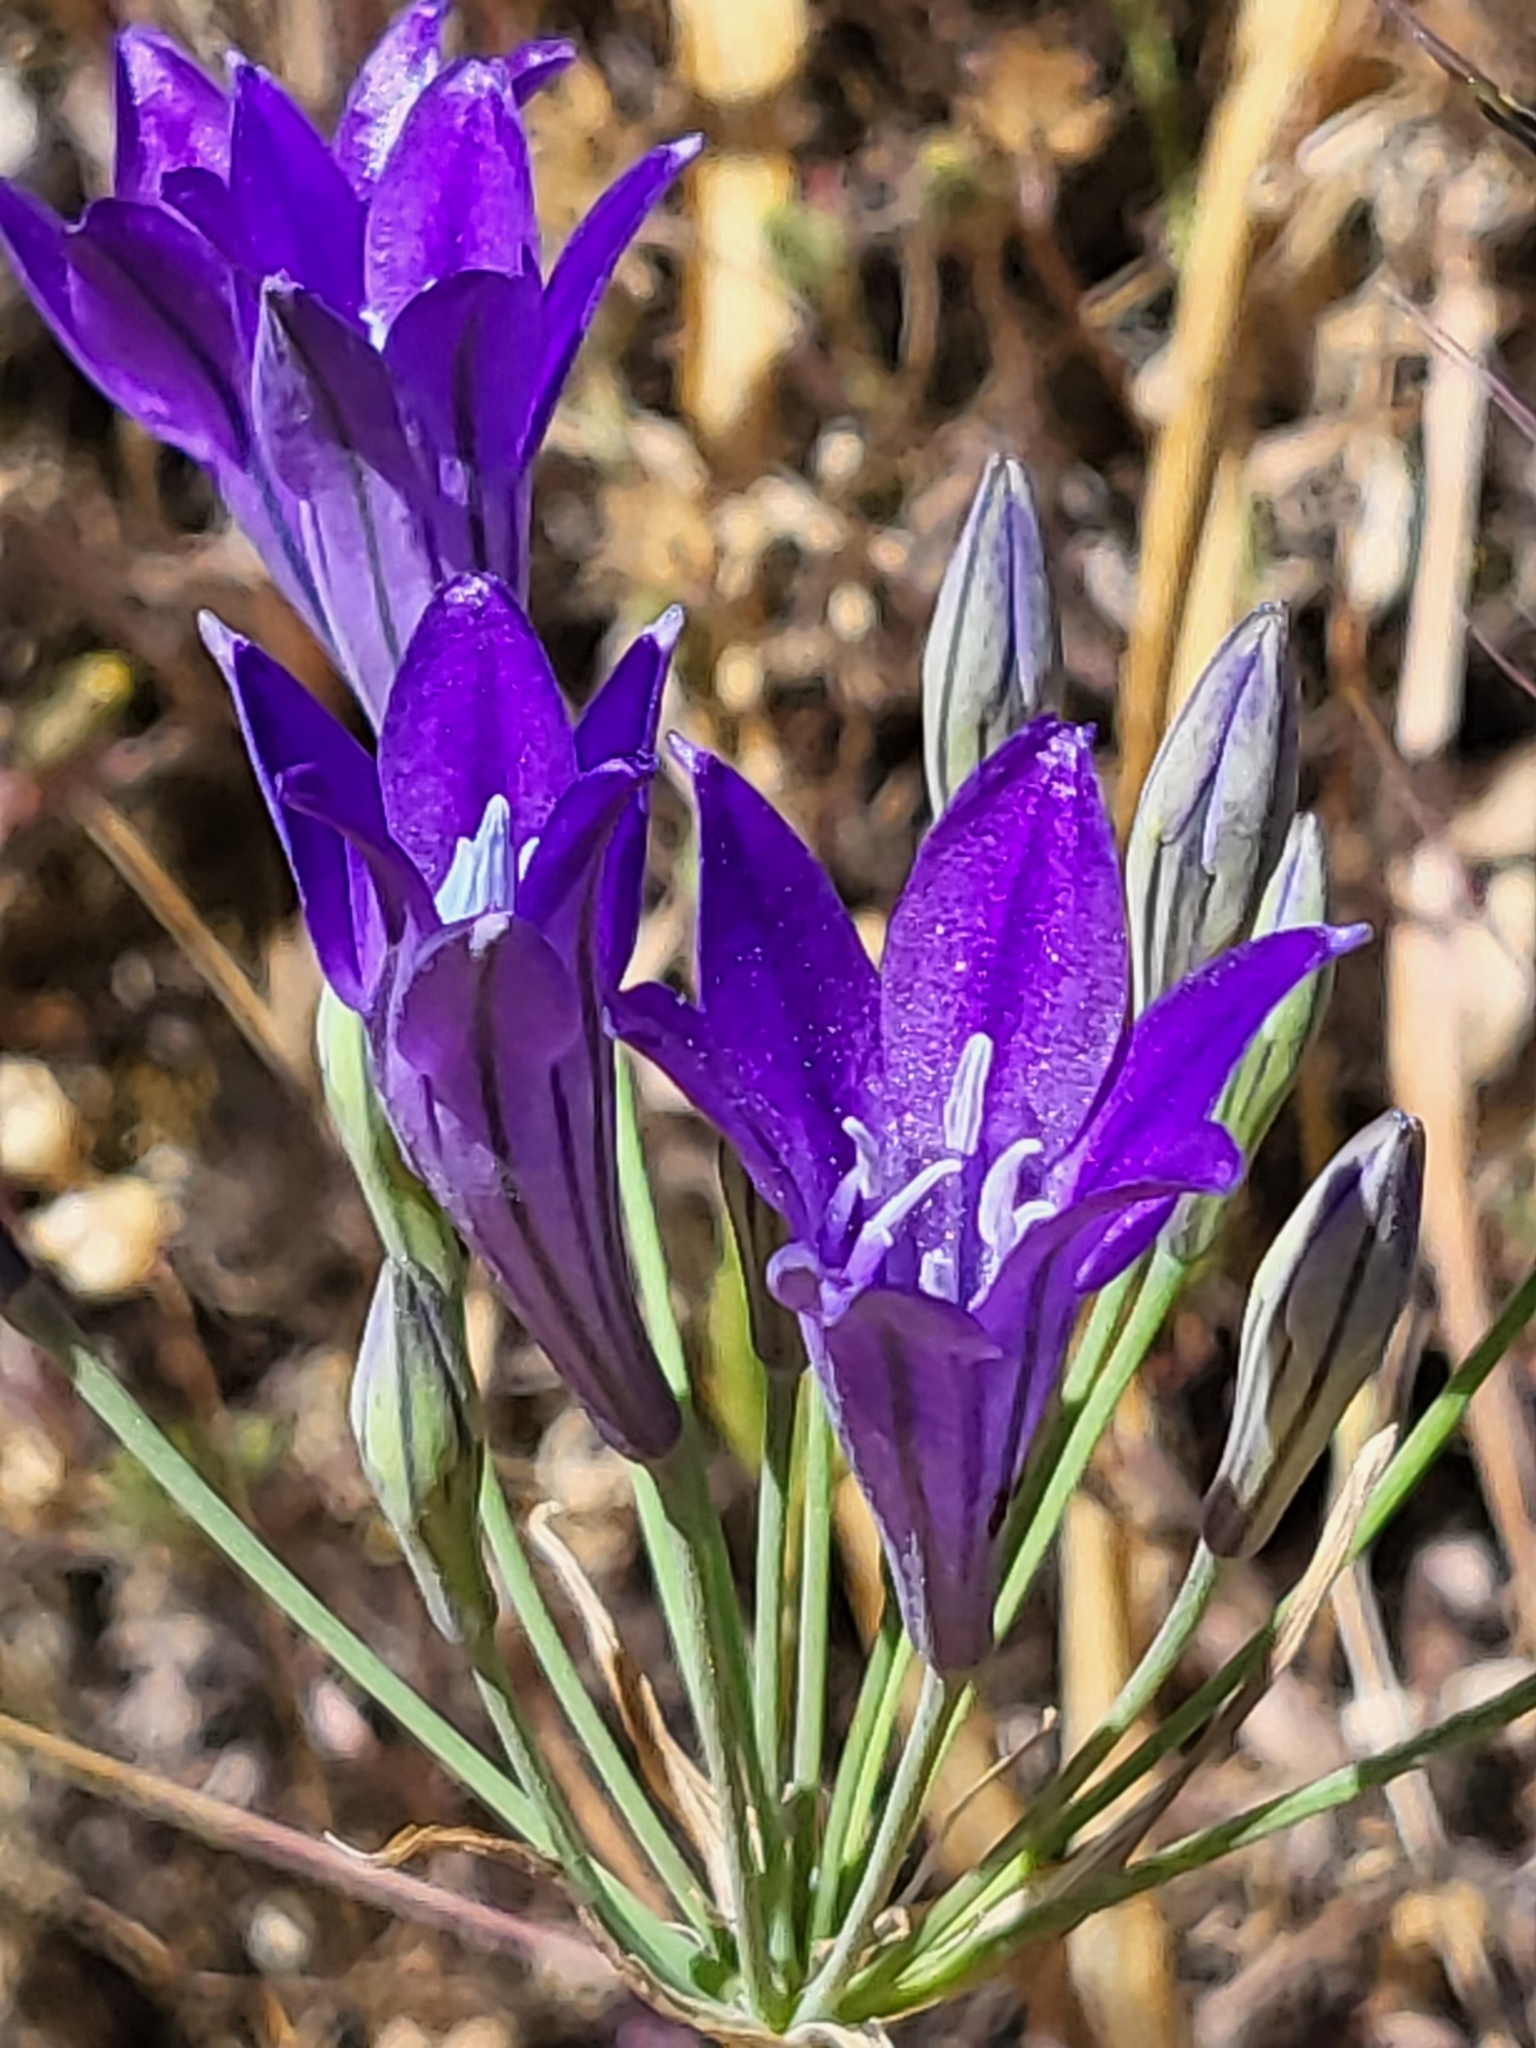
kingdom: Plantae
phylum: Tracheophyta
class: Liliopsida
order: Asparagales
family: Asparagaceae
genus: Triteleia
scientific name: Triteleia laxa
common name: Triplet-lily
